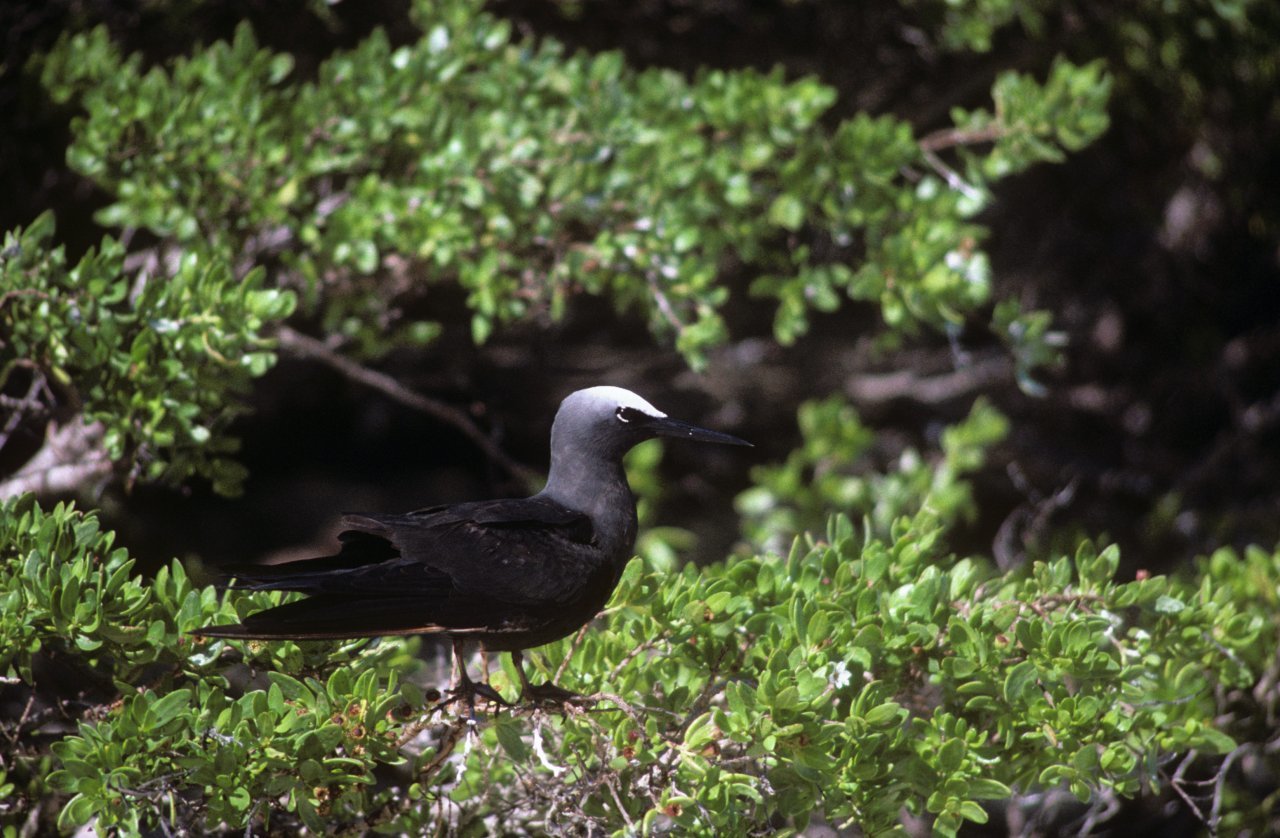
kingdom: Animalia
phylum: Chordata
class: Aves
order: Charadriiformes
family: Laridae
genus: Anous
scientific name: Anous minutus
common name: Black noddy
